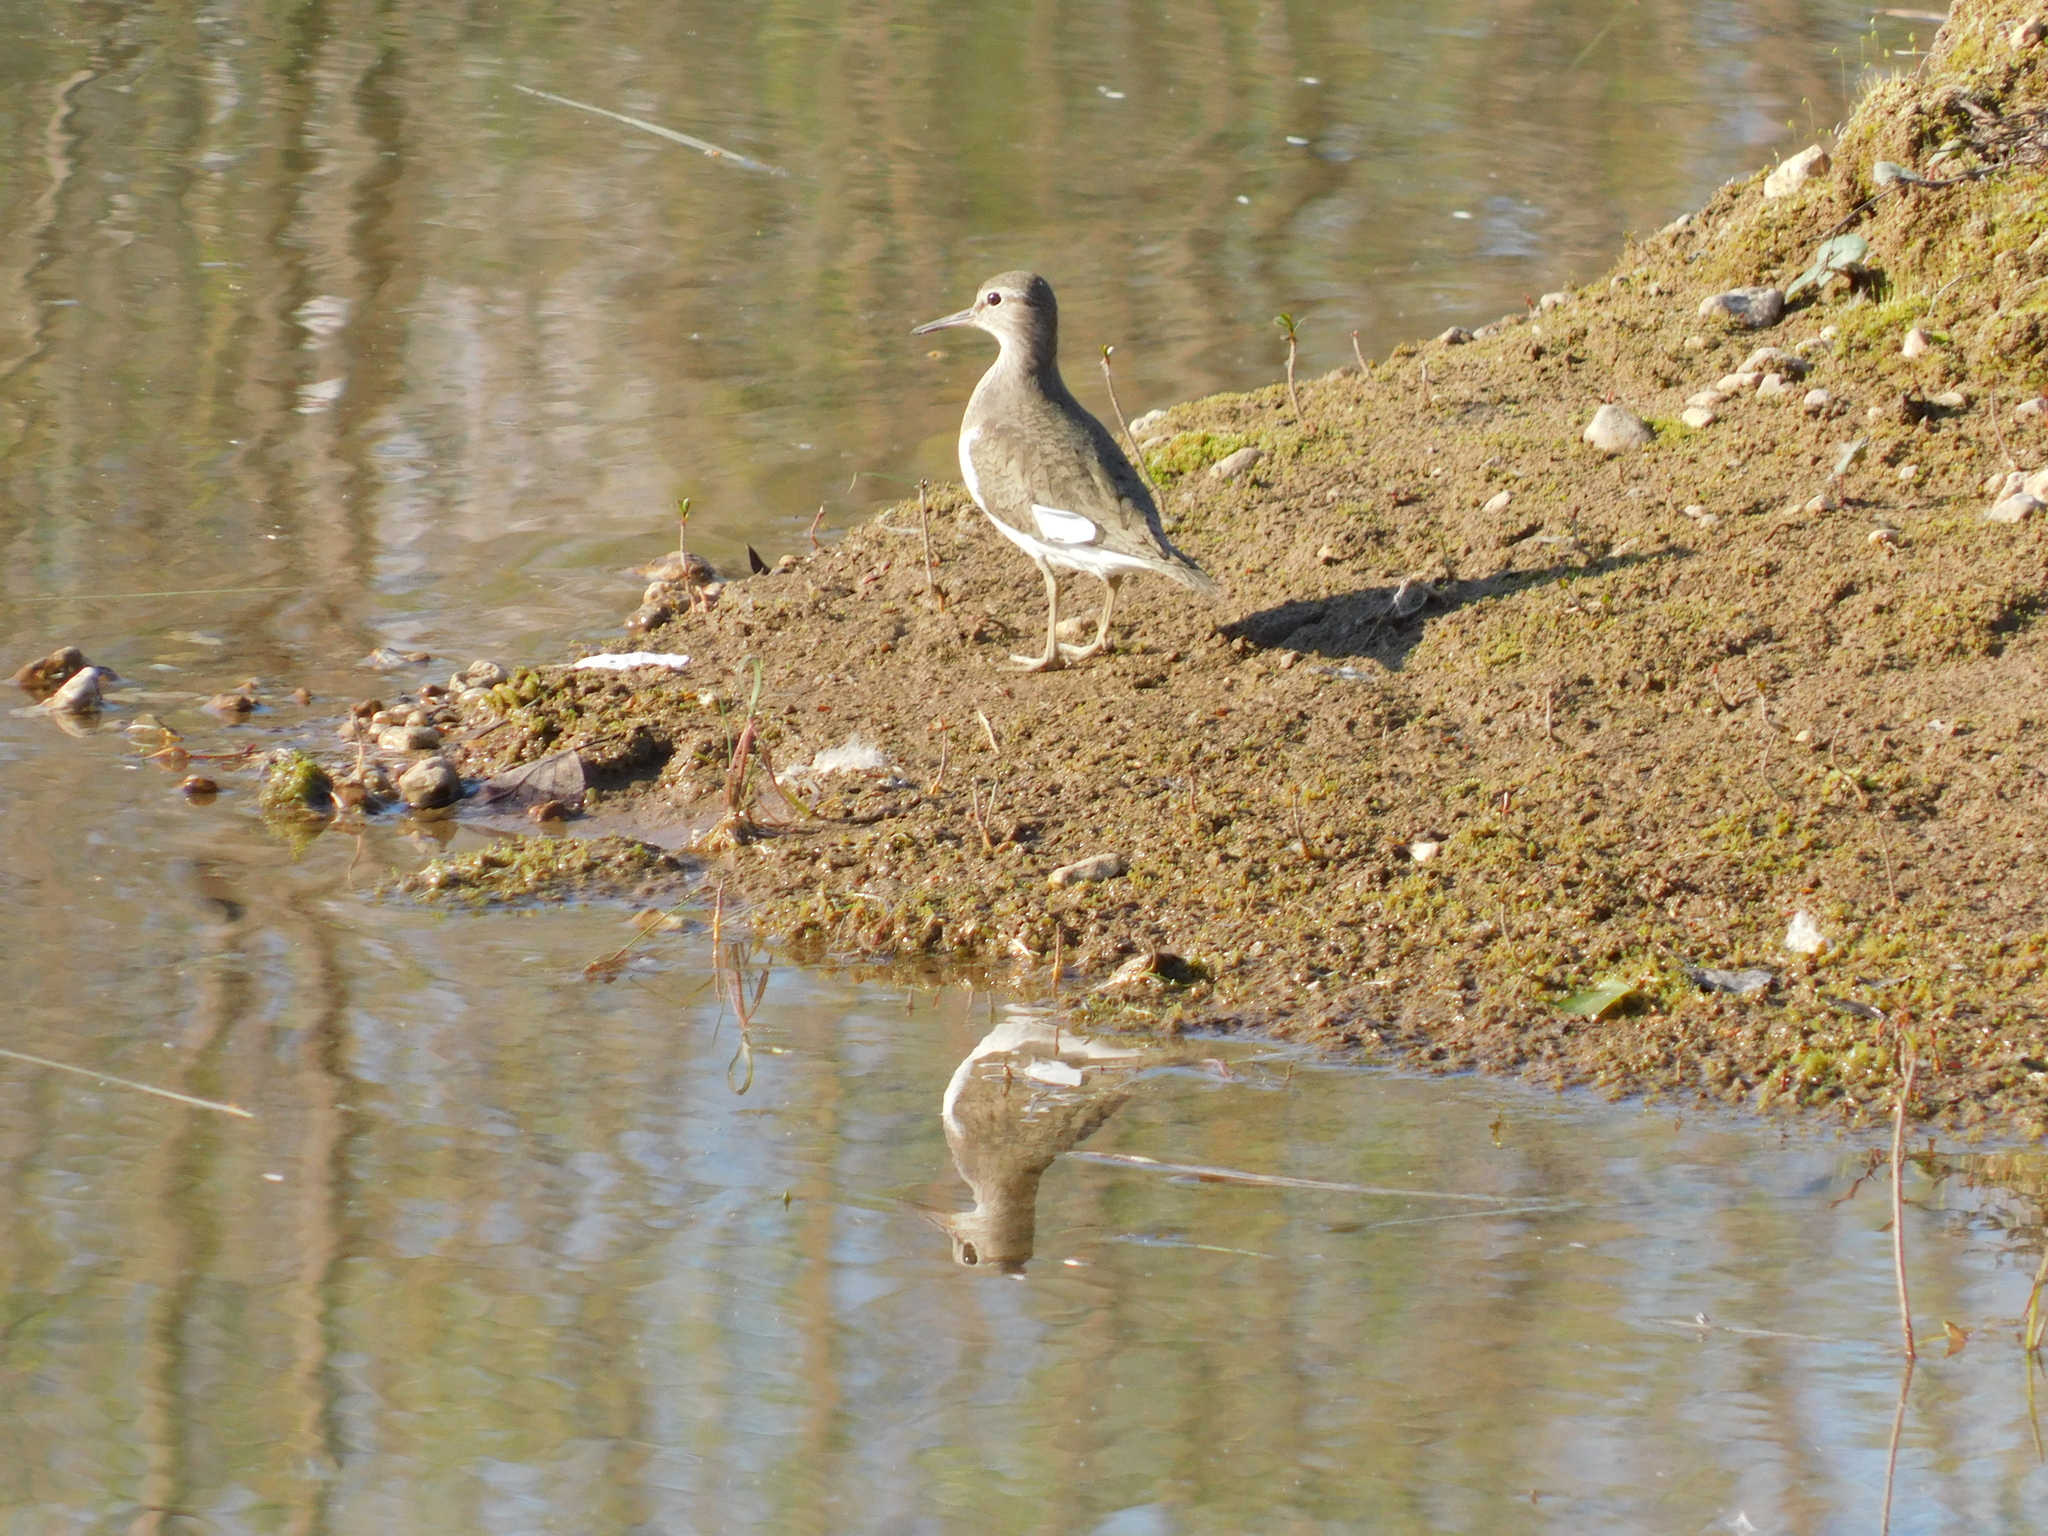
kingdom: Animalia
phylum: Chordata
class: Aves
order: Charadriiformes
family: Scolopacidae
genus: Actitis
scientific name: Actitis hypoleucos
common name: Common sandpiper
